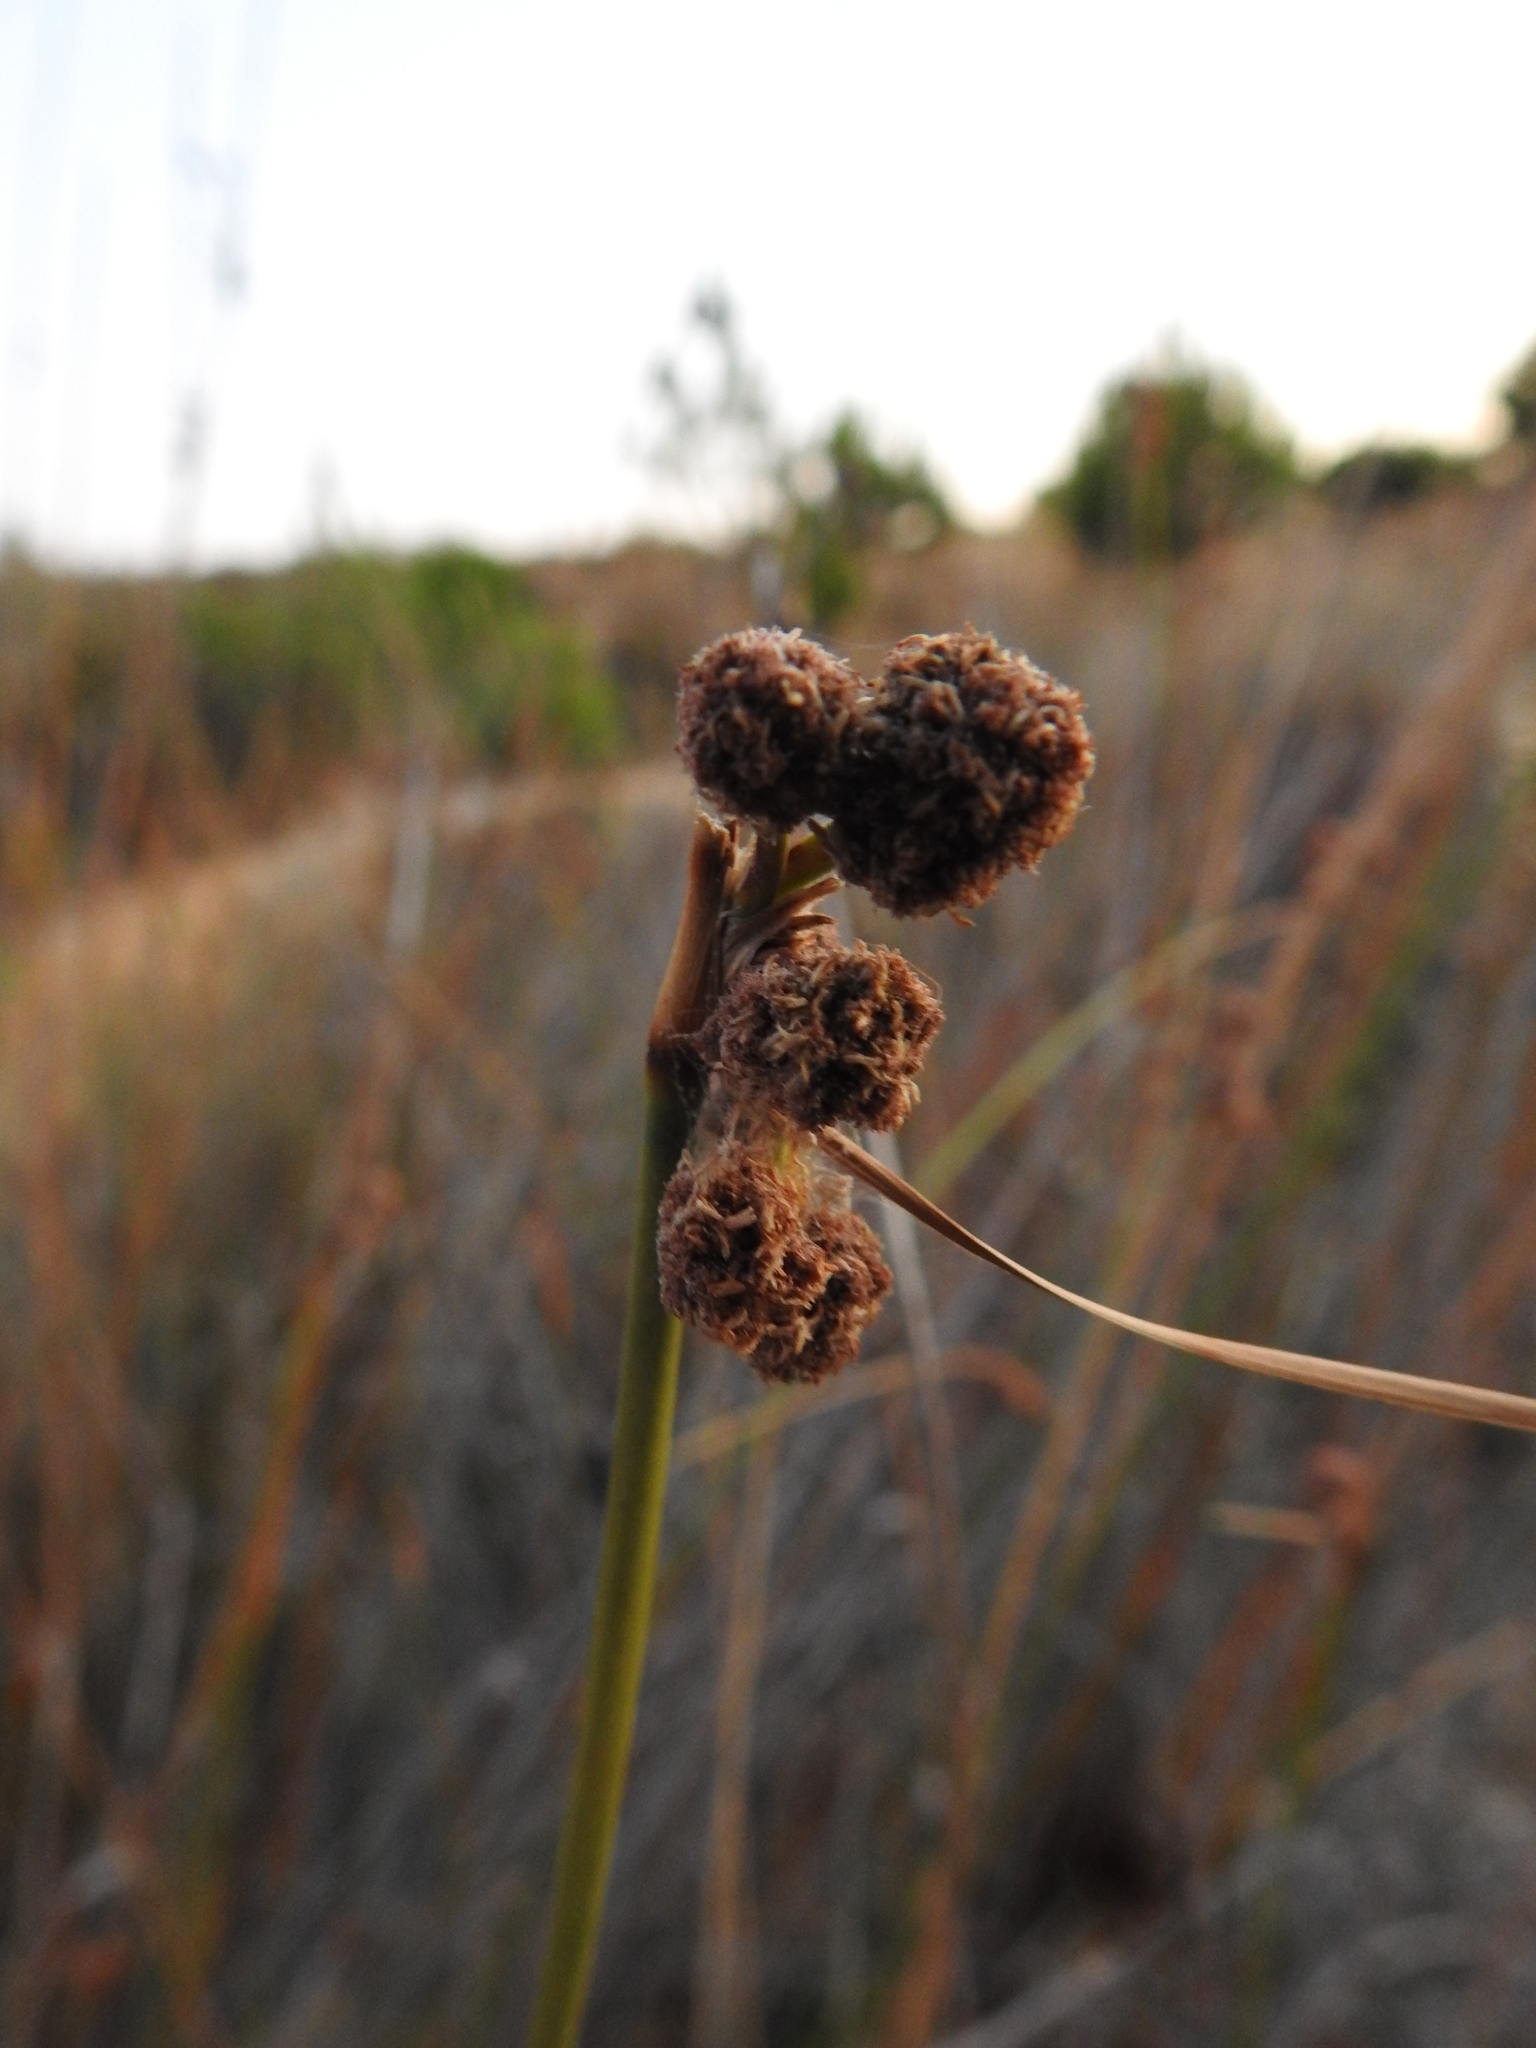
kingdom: Plantae
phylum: Tracheophyta
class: Liliopsida
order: Poales
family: Cyperaceae
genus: Scirpoides
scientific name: Scirpoides holoschoenus
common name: Round-headed club-rush
